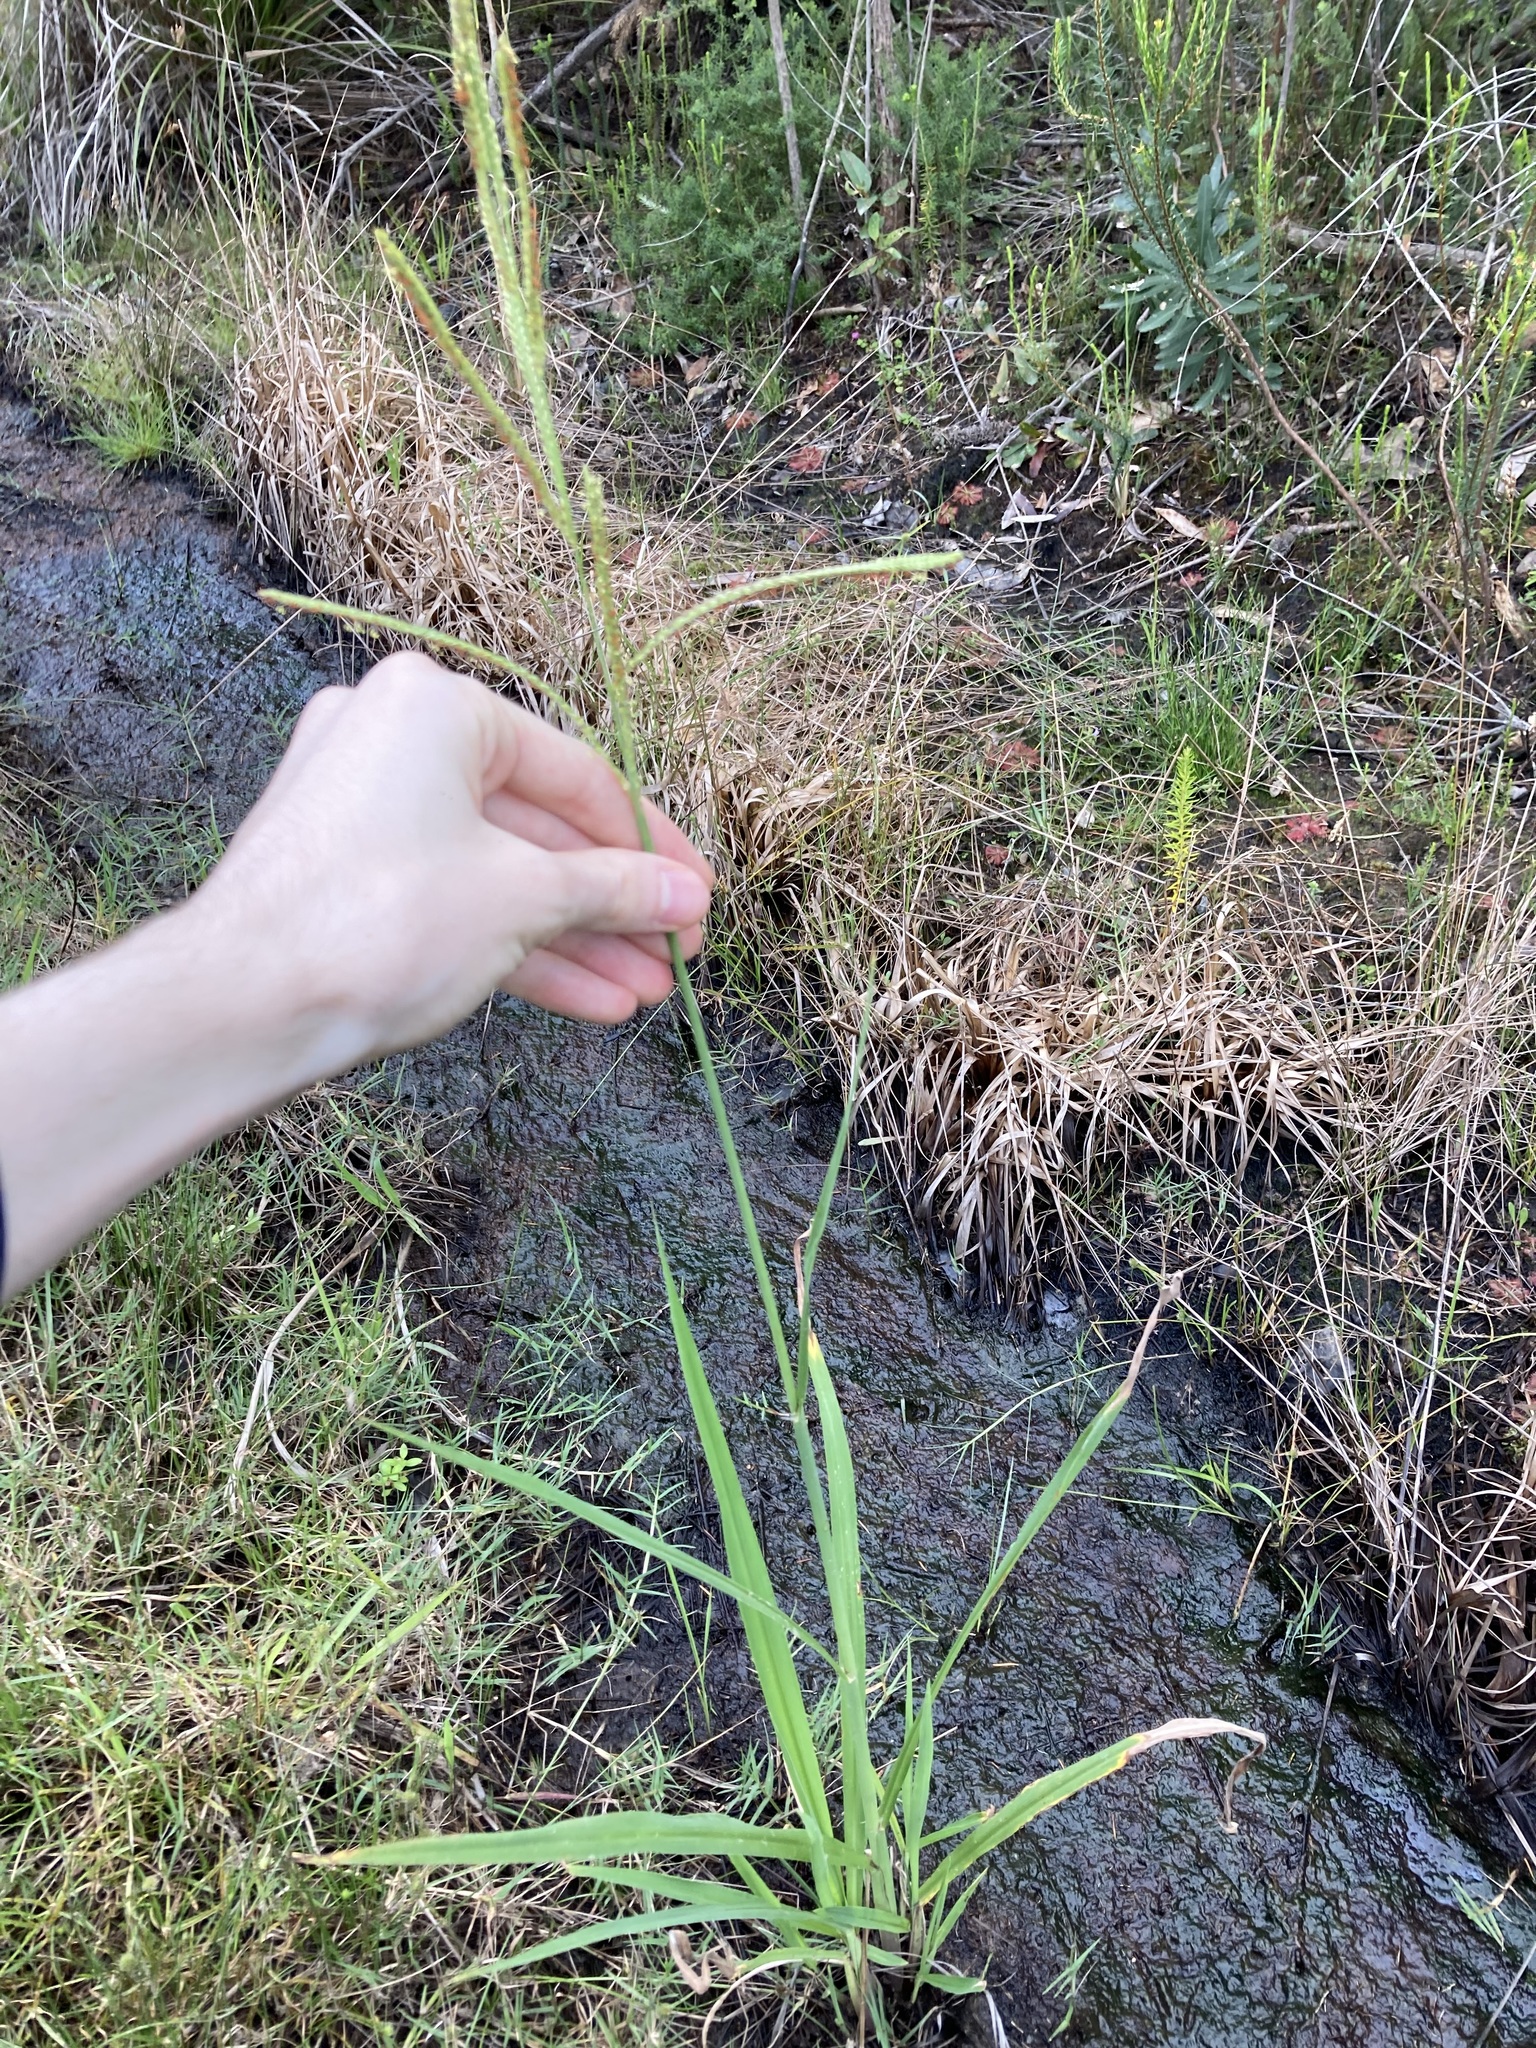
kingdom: Plantae
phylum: Tracheophyta
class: Liliopsida
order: Poales
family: Poaceae
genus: Paspalum
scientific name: Paspalum urvillei
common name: Vasey's grass
